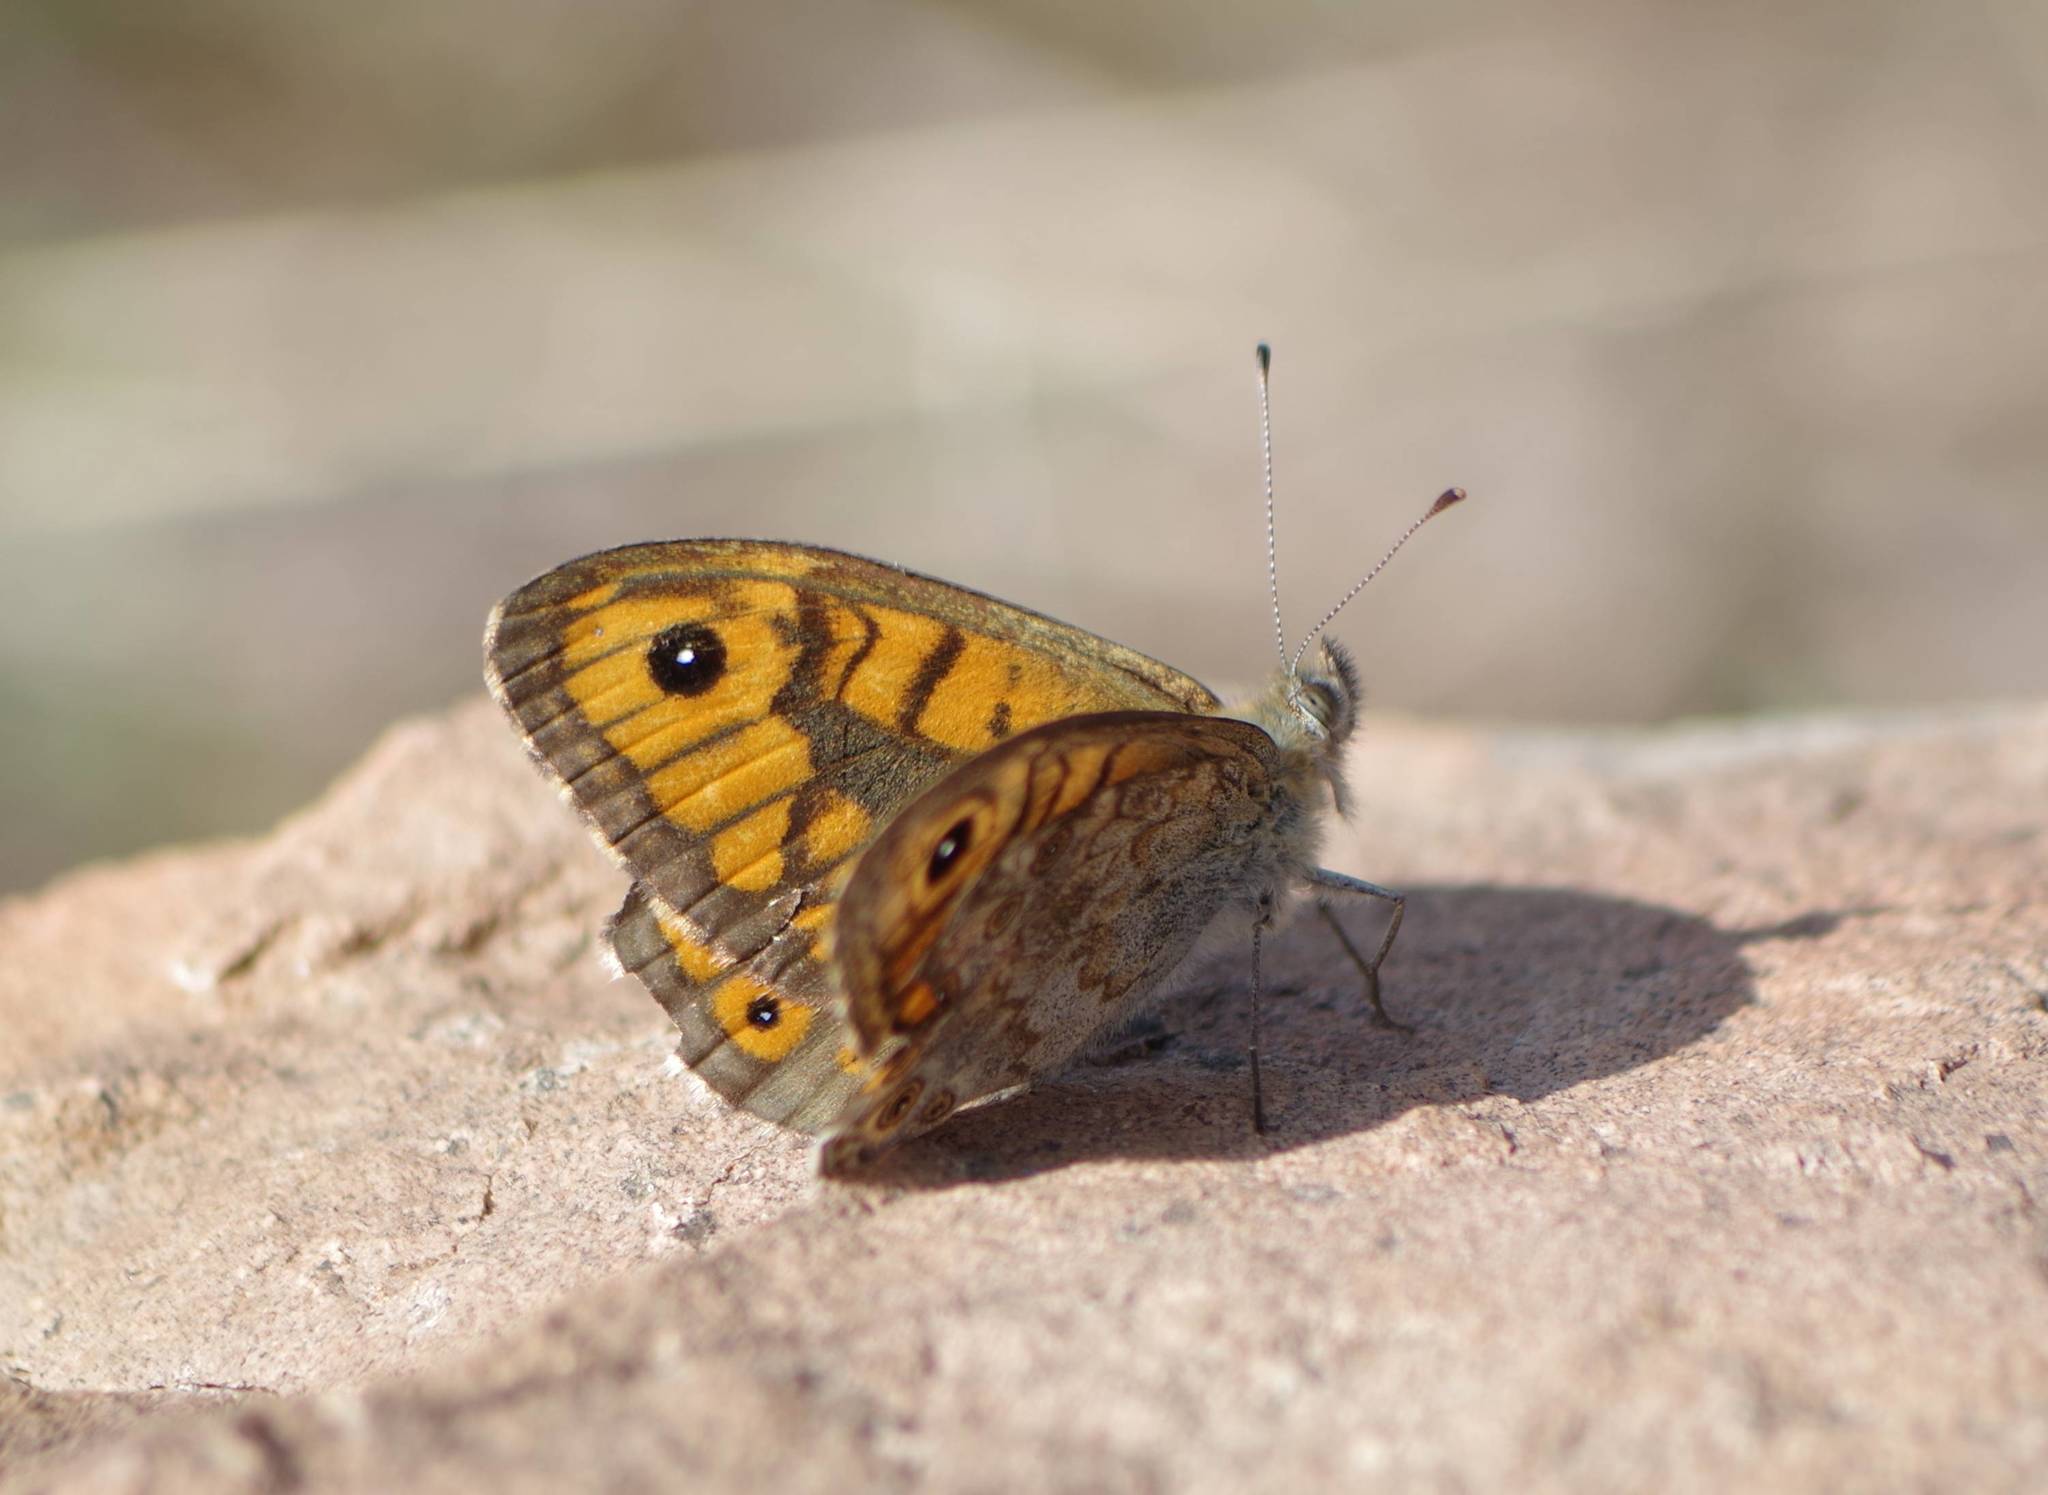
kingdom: Animalia
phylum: Arthropoda
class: Insecta
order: Lepidoptera
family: Nymphalidae
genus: Pararge
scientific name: Pararge Lasiommata megera
